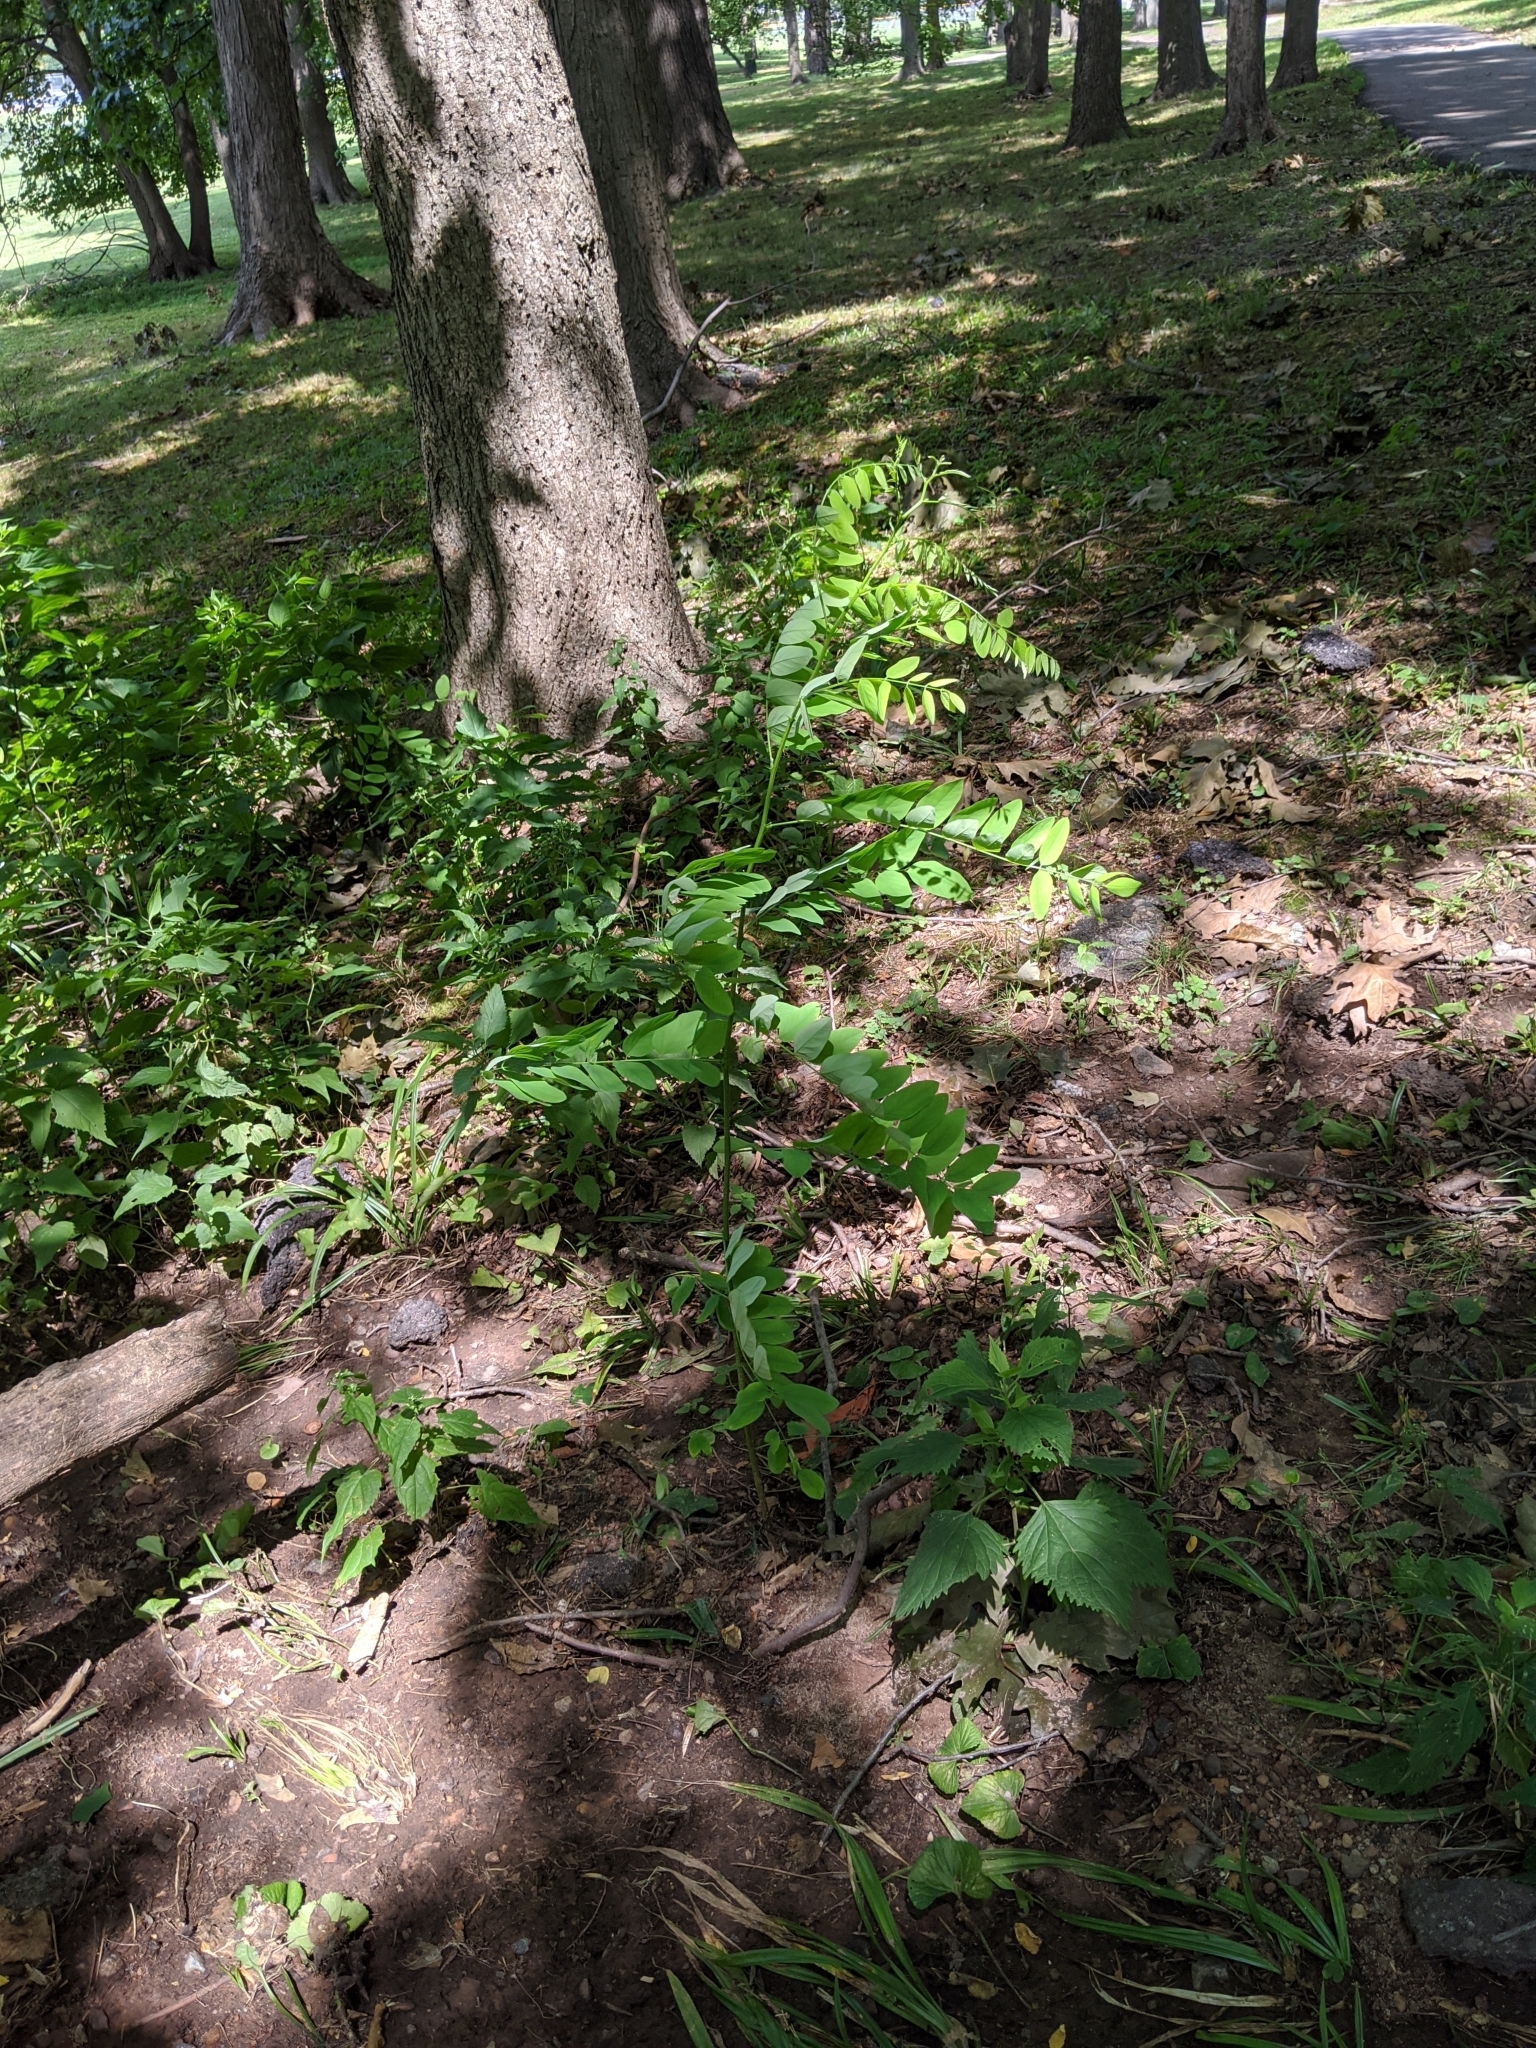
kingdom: Plantae
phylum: Tracheophyta
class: Magnoliopsida
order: Fabales
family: Fabaceae
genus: Robinia
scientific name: Robinia pseudoacacia
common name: Black locust
